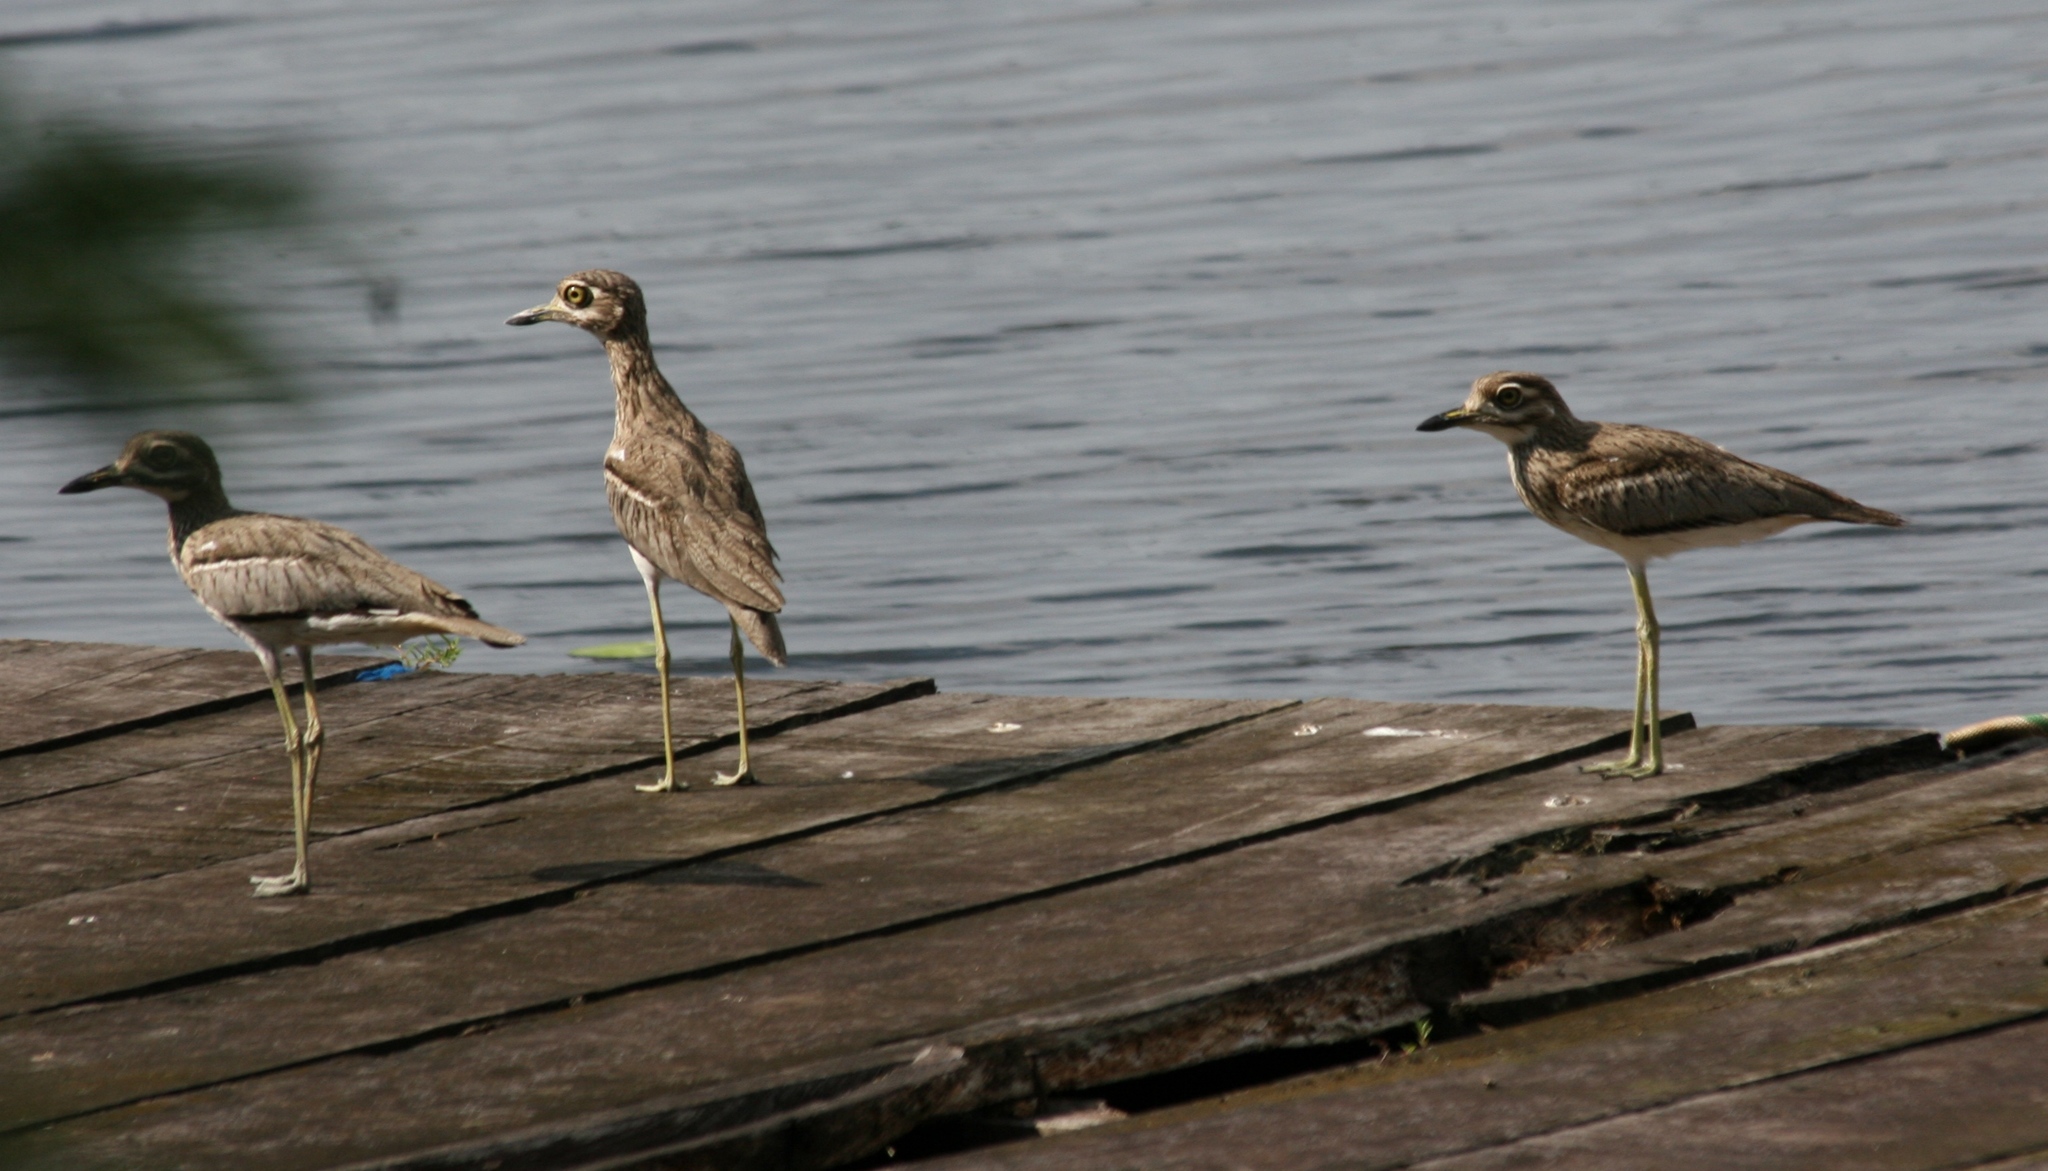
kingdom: Animalia
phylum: Chordata
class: Aves
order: Charadriiformes
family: Burhinidae
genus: Burhinus
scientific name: Burhinus vermiculatus
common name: Water thick-knee
